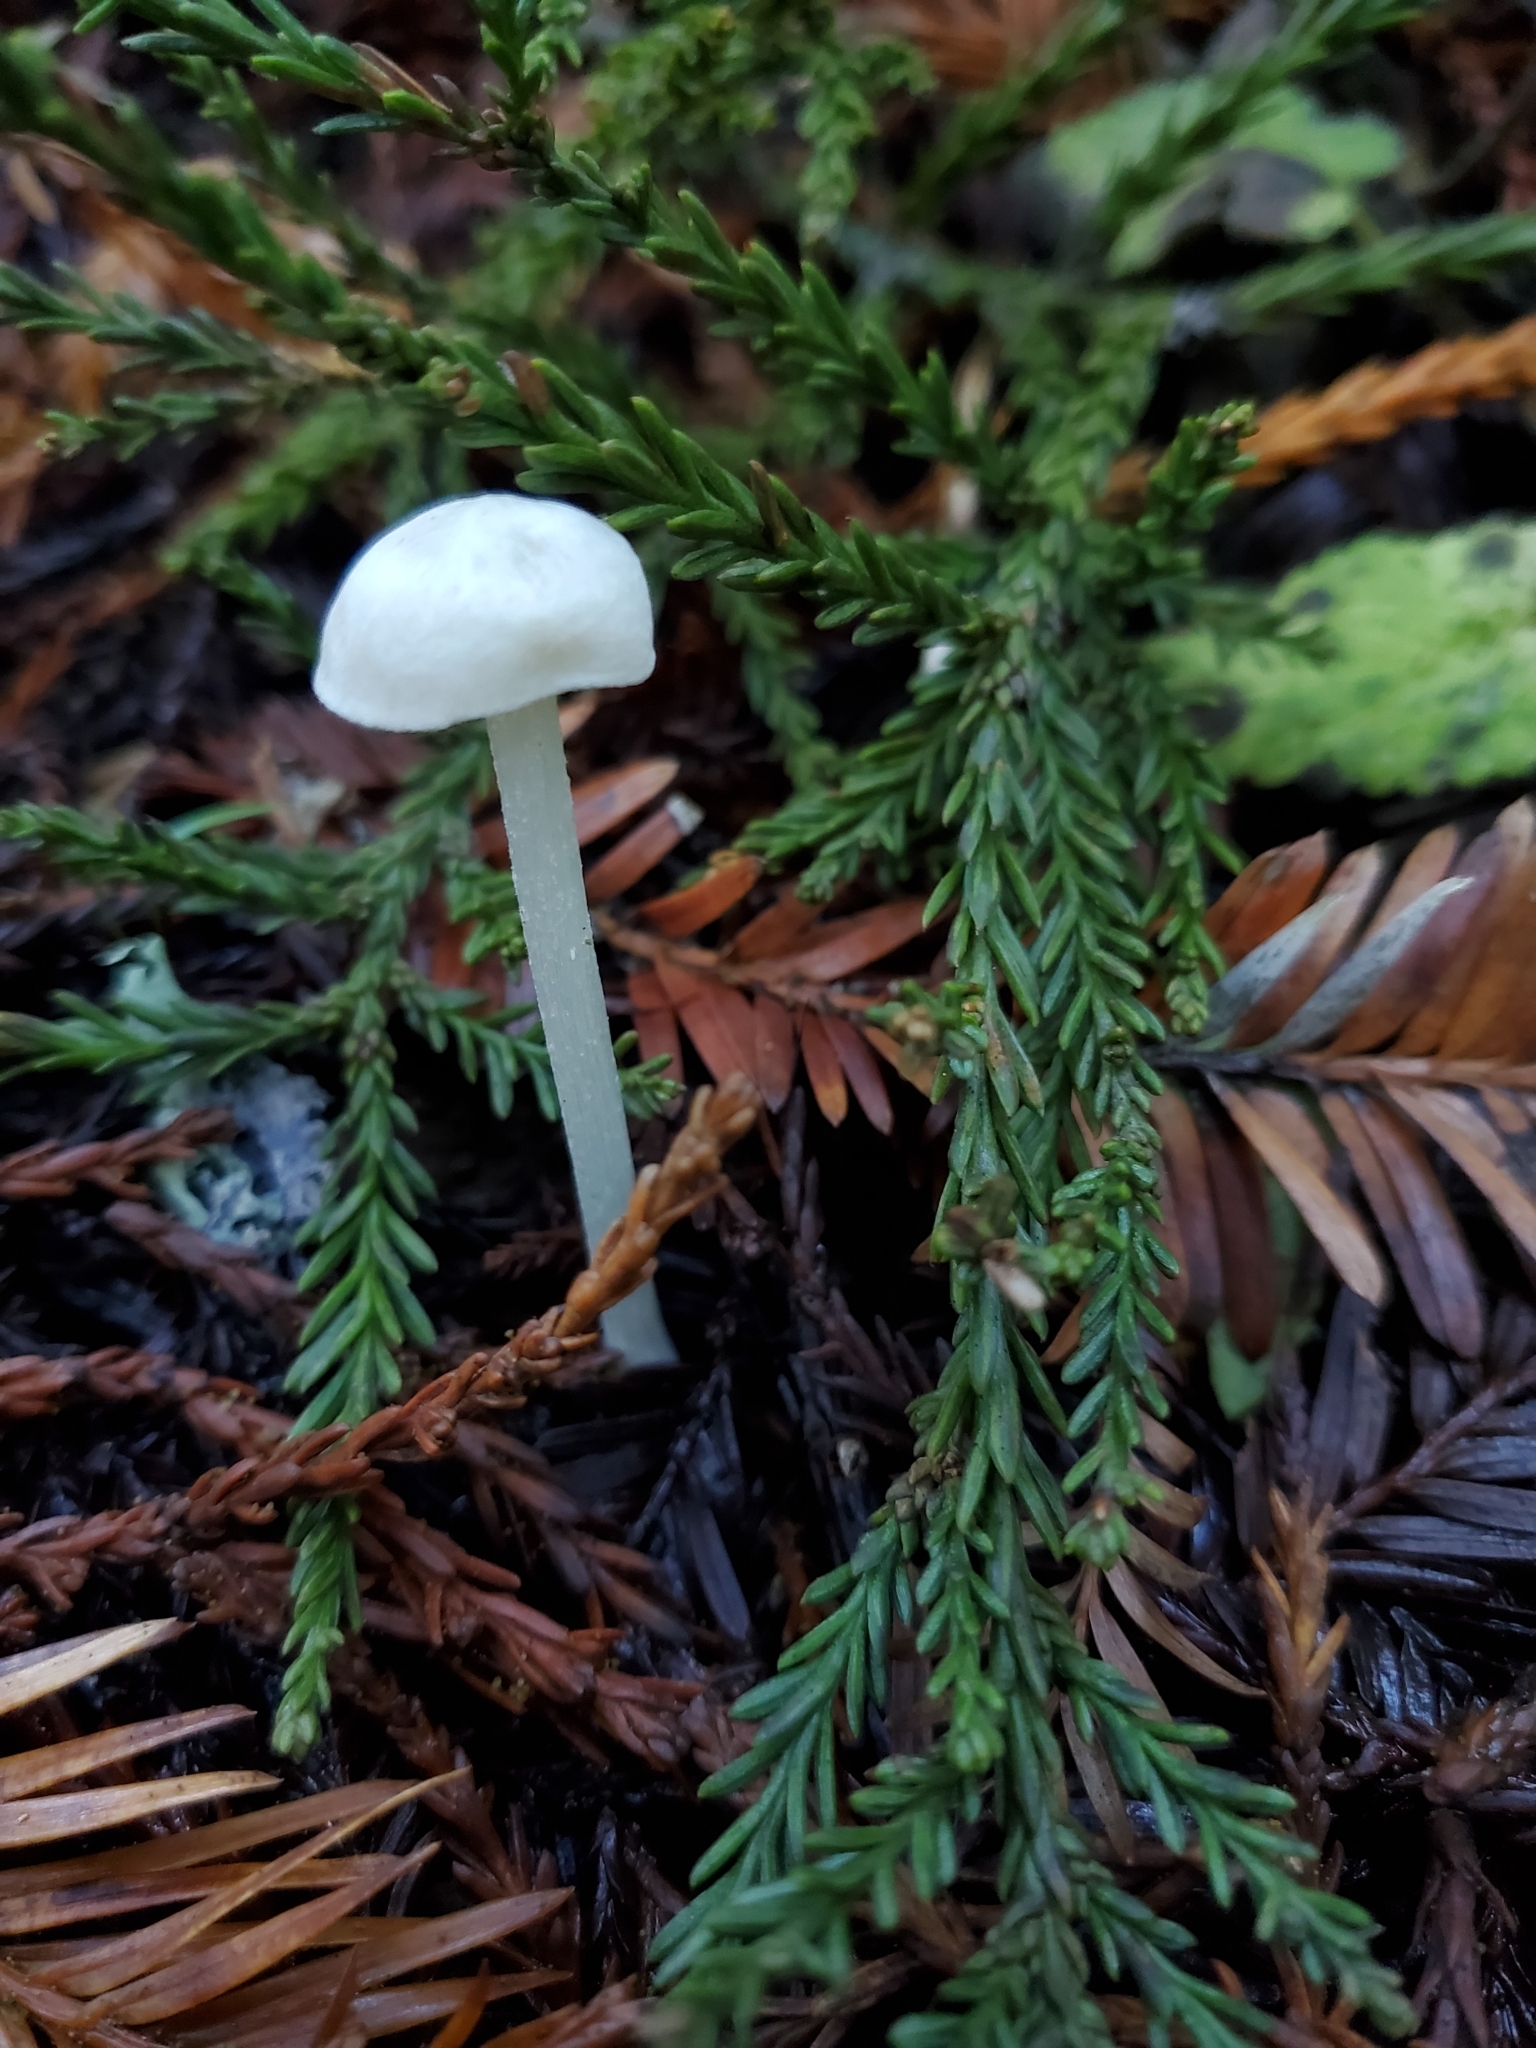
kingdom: Fungi
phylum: Basidiomycota
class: Agaricomycetes
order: Agaricales
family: Entolomataceae
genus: Entoloma
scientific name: Entoloma adnatifolium
